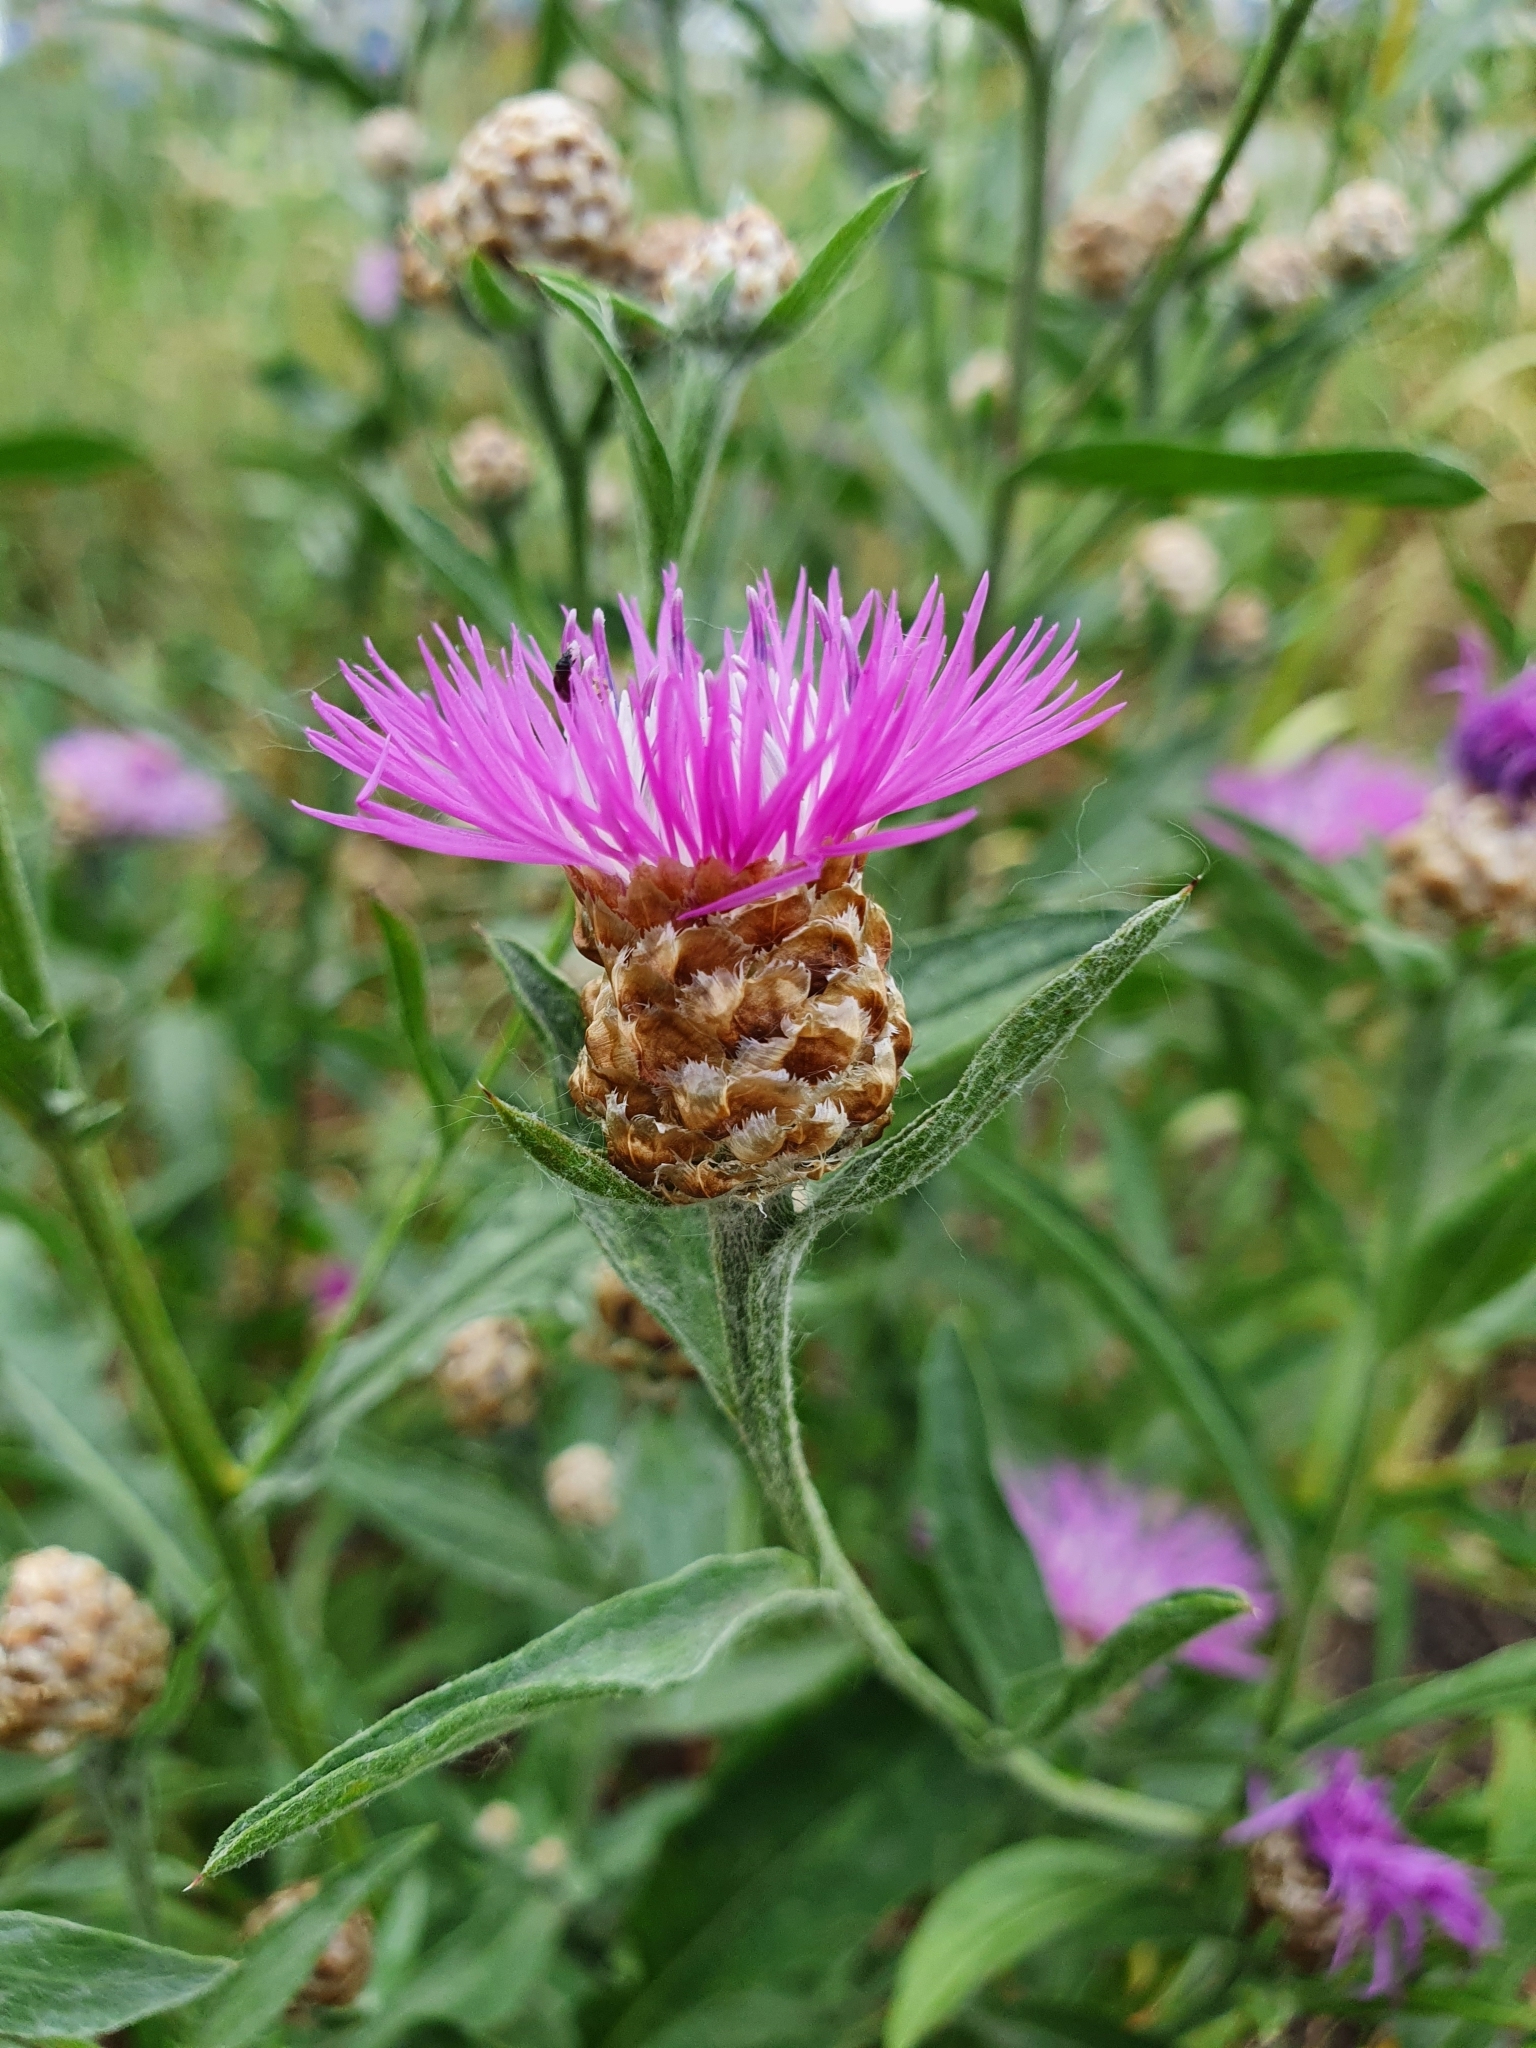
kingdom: Plantae
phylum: Tracheophyta
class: Magnoliopsida
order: Asterales
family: Asteraceae
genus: Centaurea
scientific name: Centaurea jacea
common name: Brown knapweed
